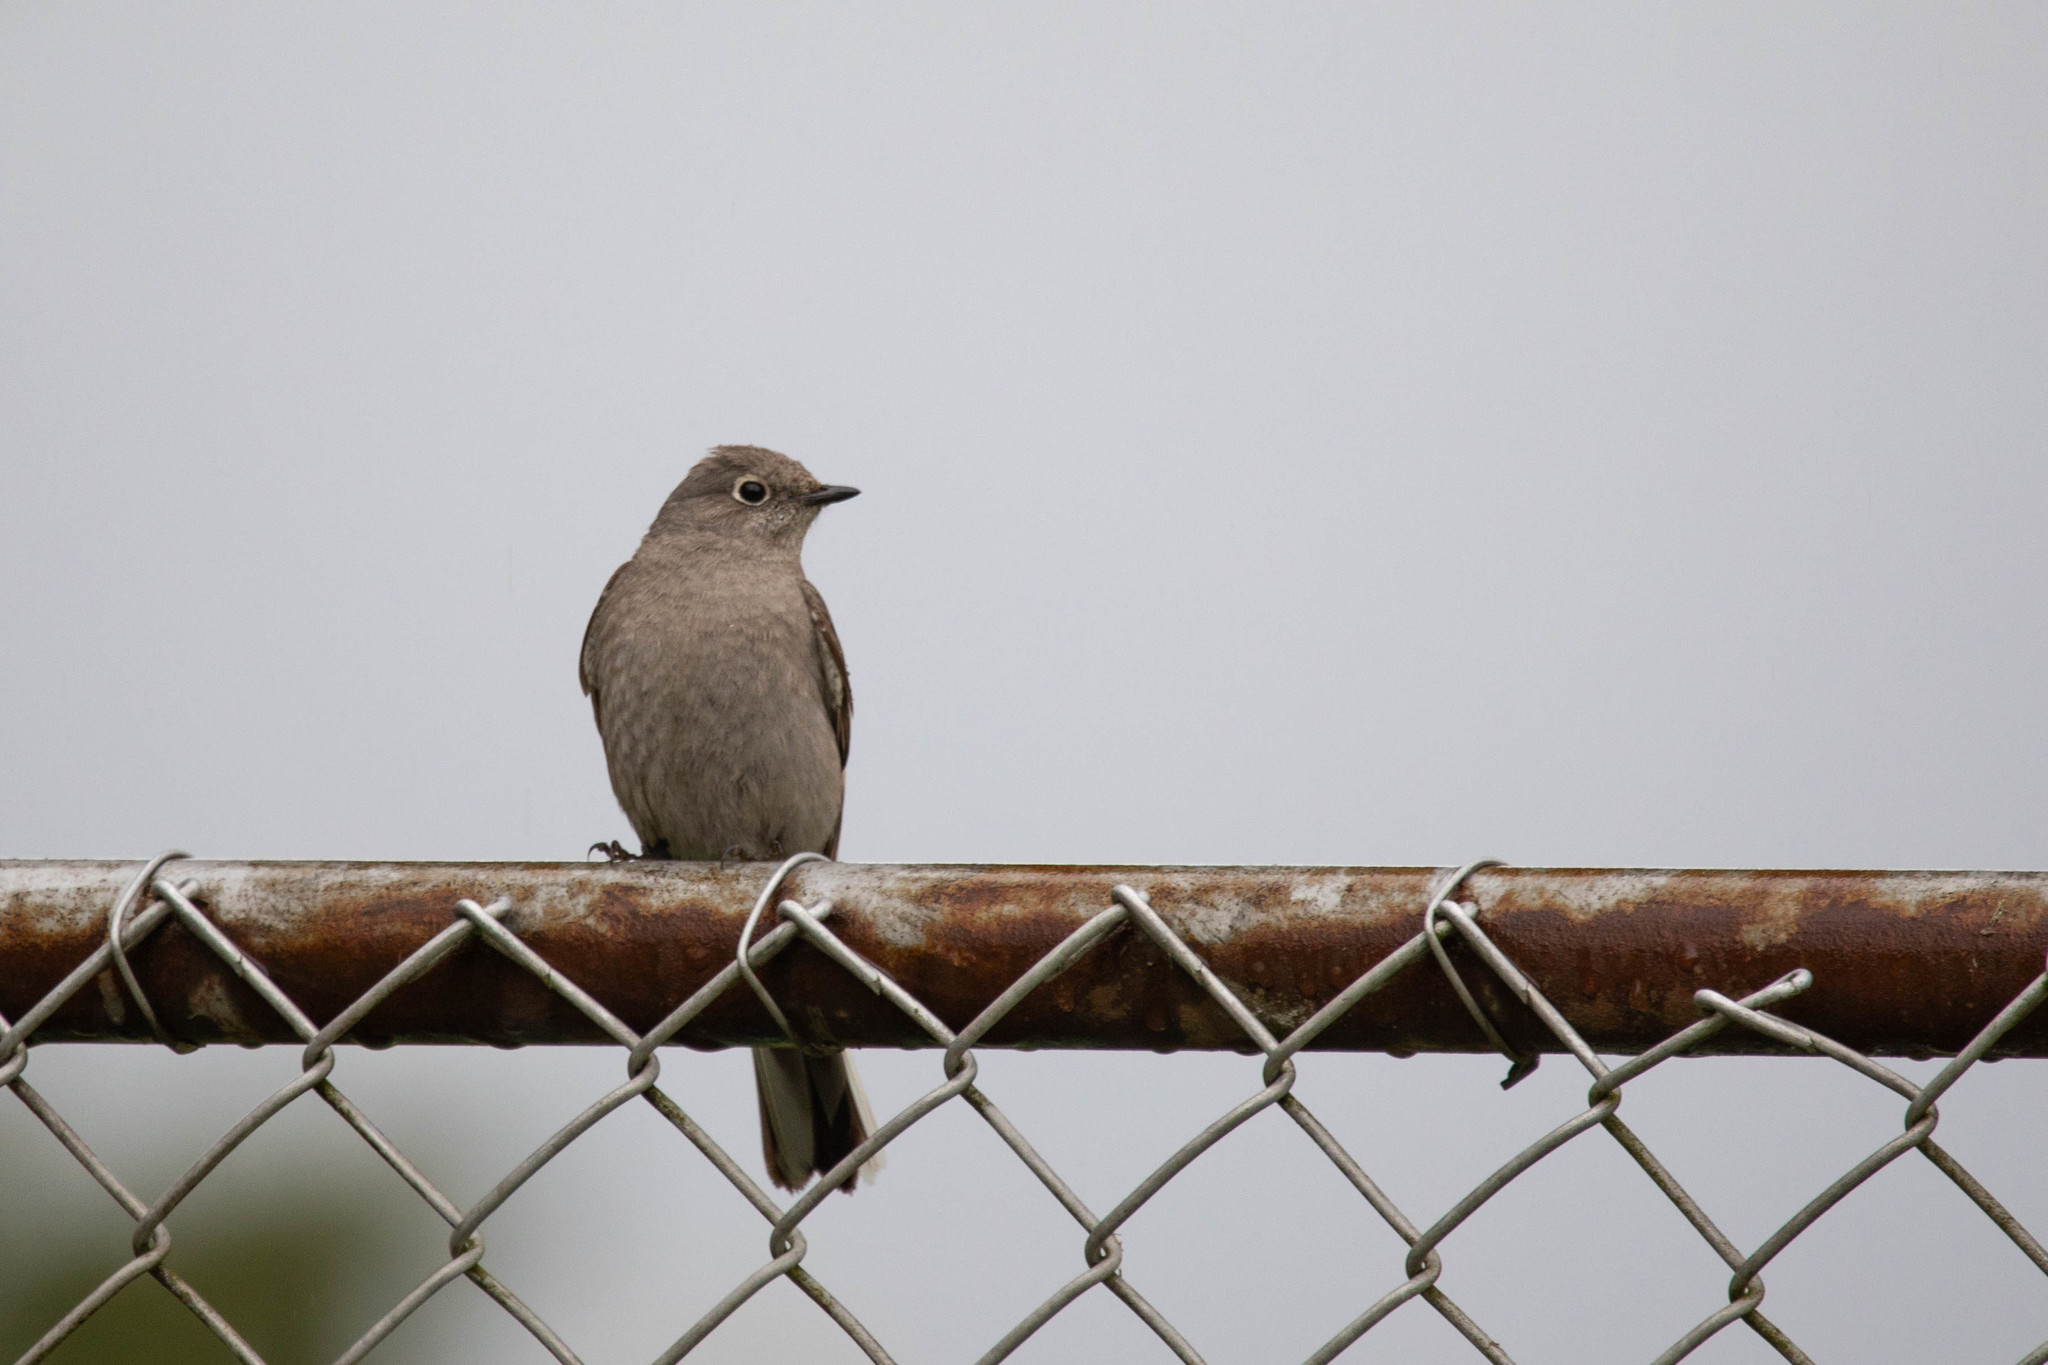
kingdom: Animalia
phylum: Chordata
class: Aves
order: Passeriformes
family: Turdidae
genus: Myadestes
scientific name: Myadestes townsendi
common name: Townsend's solitaire
